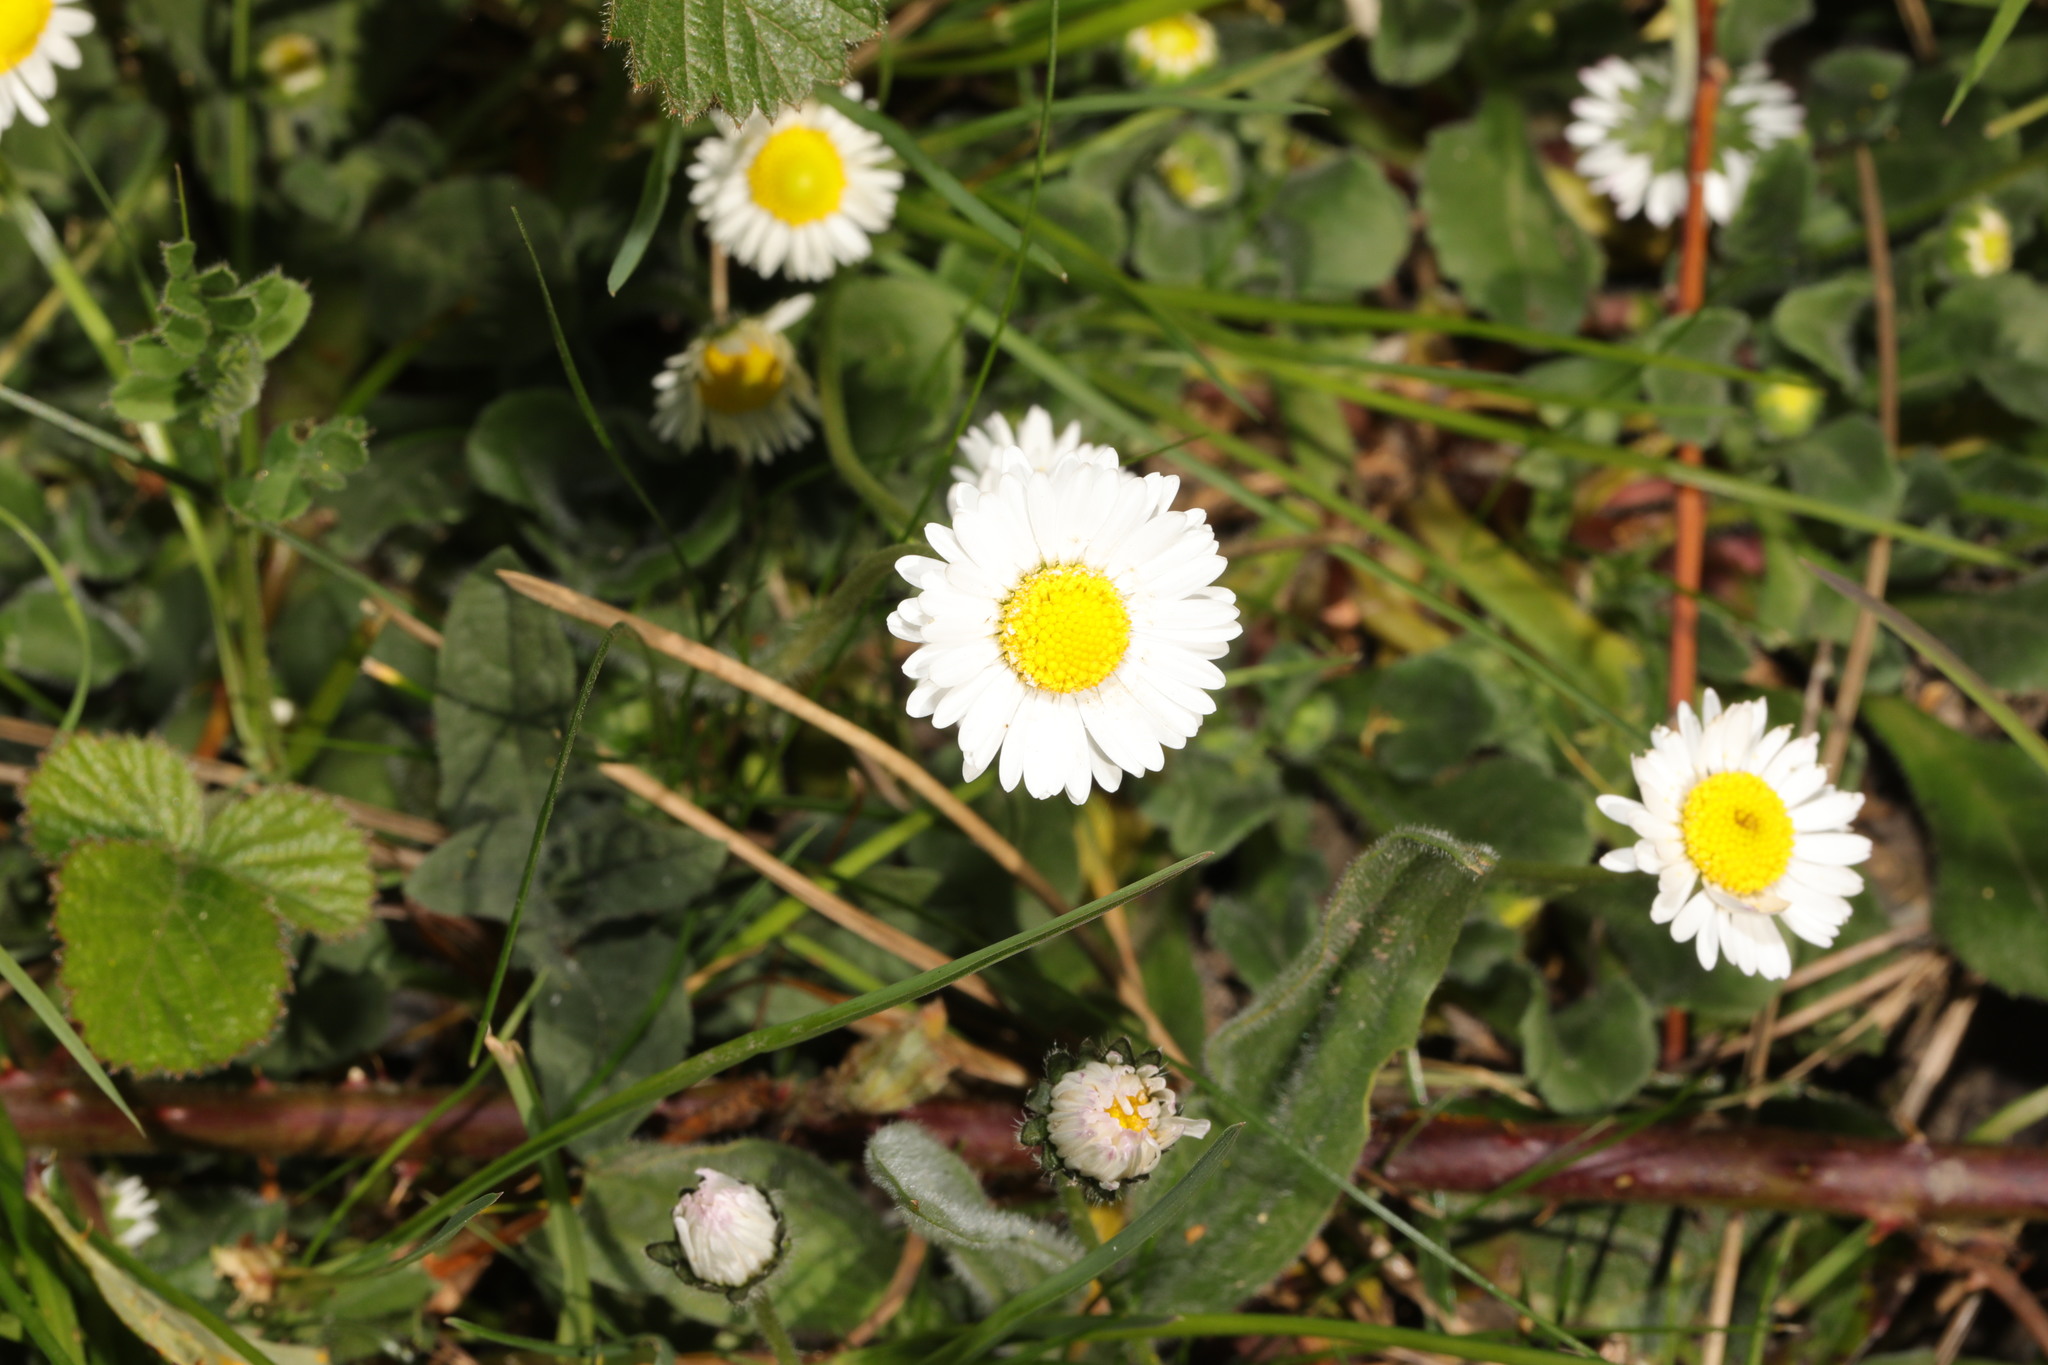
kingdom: Plantae
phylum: Tracheophyta
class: Magnoliopsida
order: Asterales
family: Asteraceae
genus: Bellis
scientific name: Bellis perennis
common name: Lawndaisy
